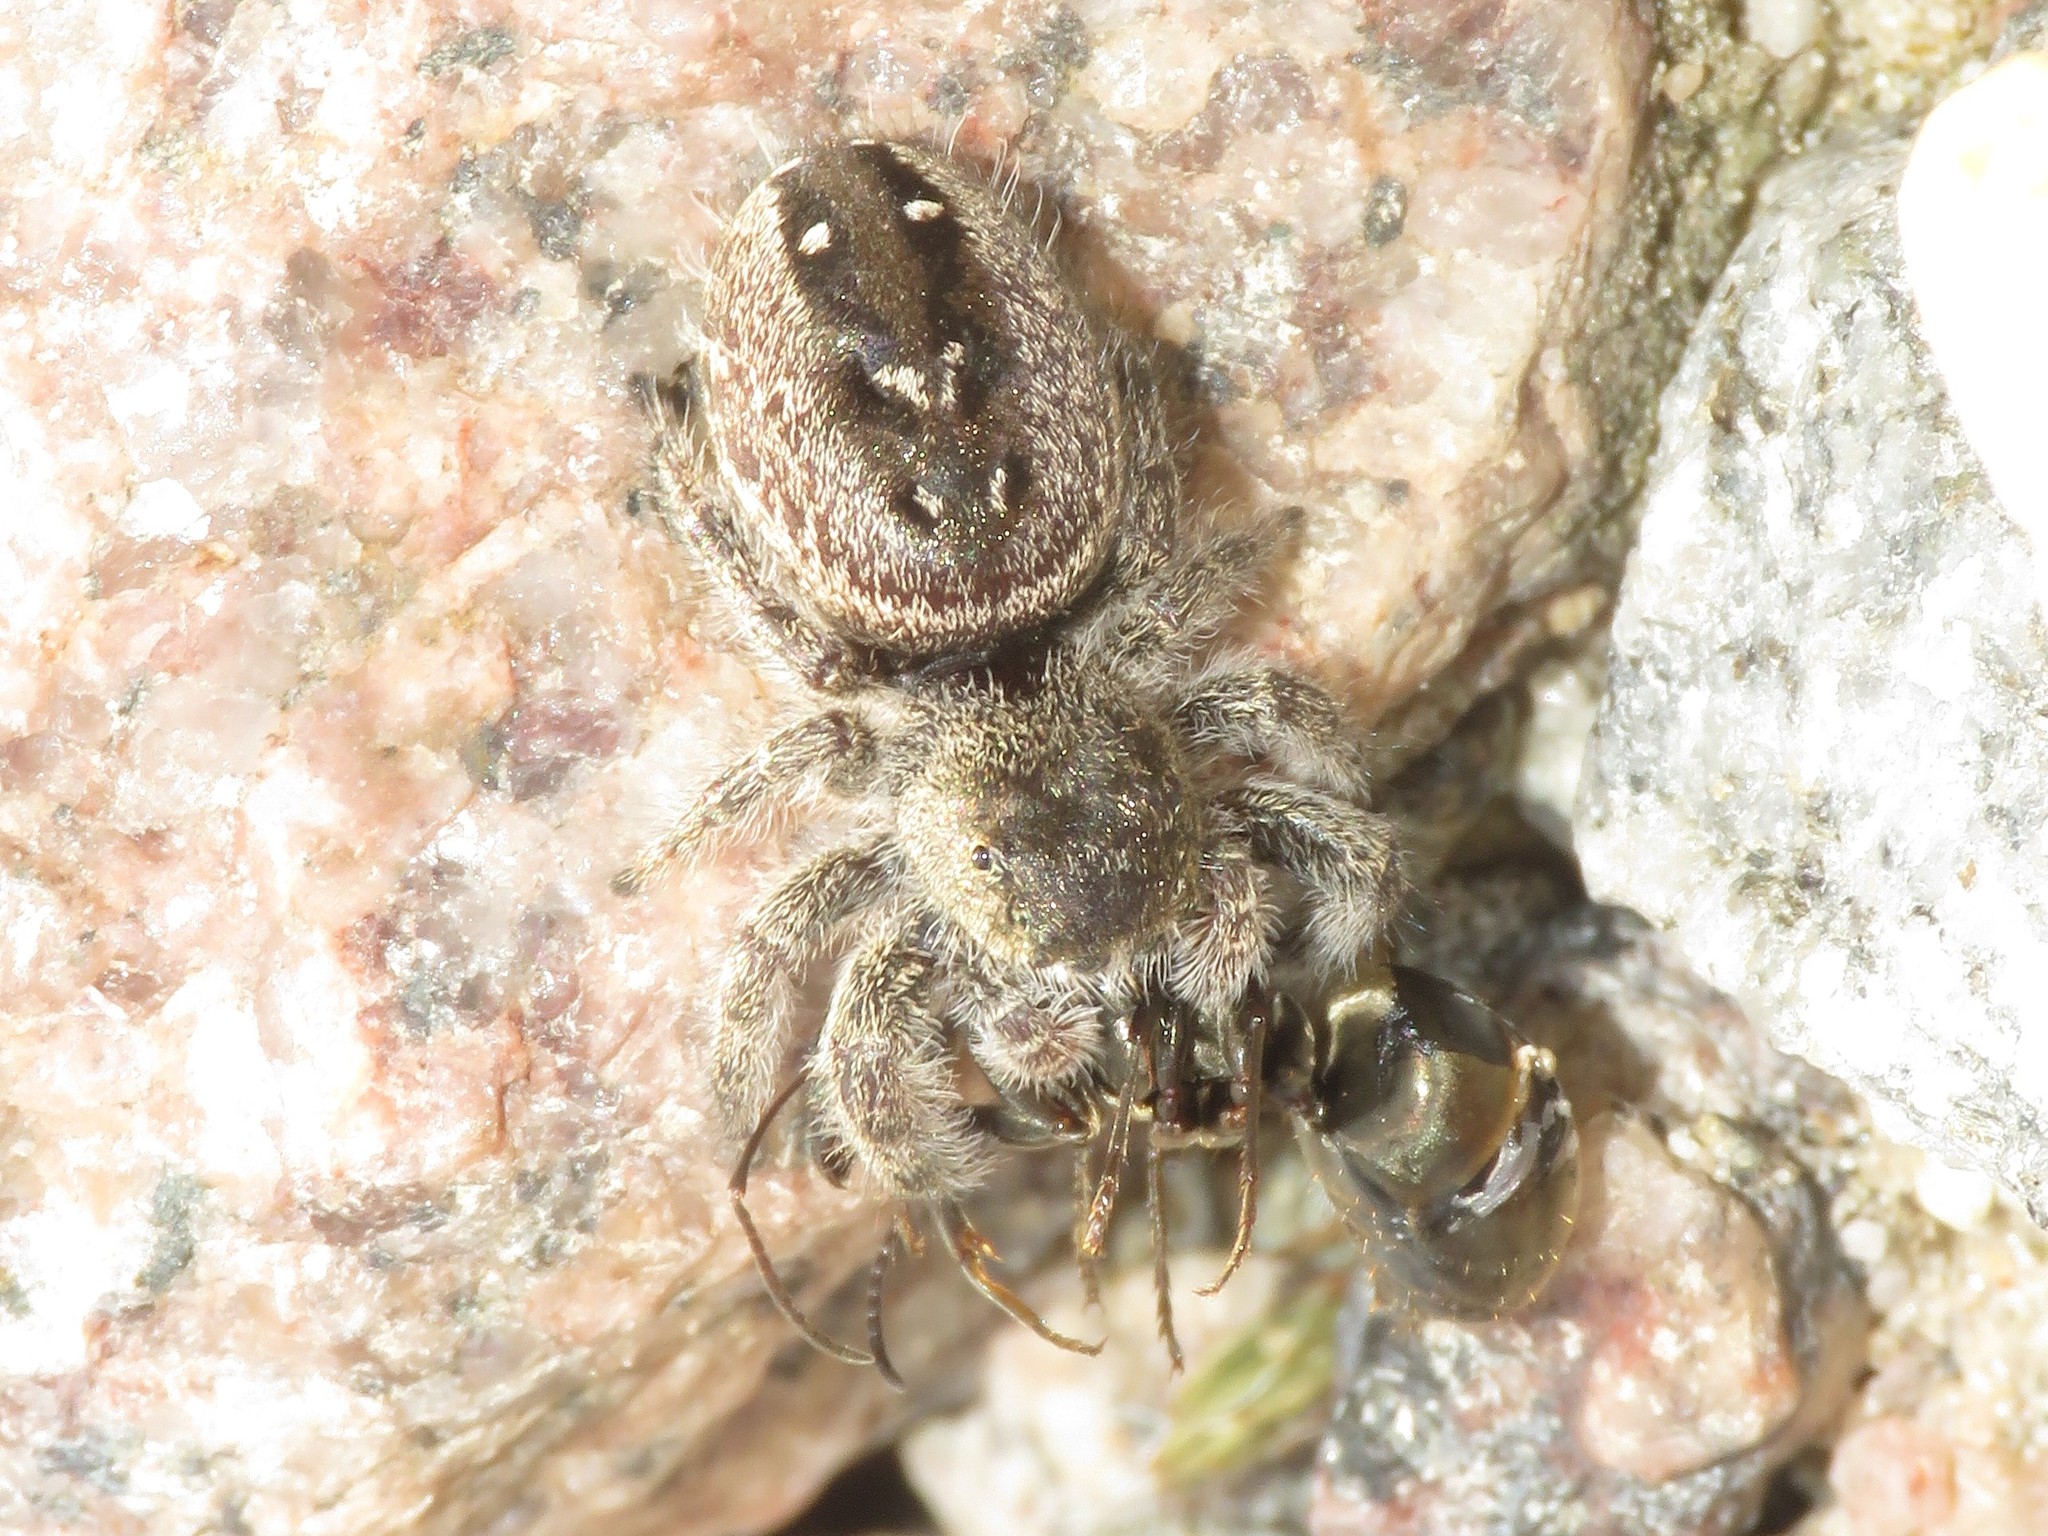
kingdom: Animalia
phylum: Arthropoda
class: Arachnida
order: Araneae
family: Salticidae
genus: Phidippus
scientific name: Phidippus purpuratus
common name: Marbled purple jumping spider
